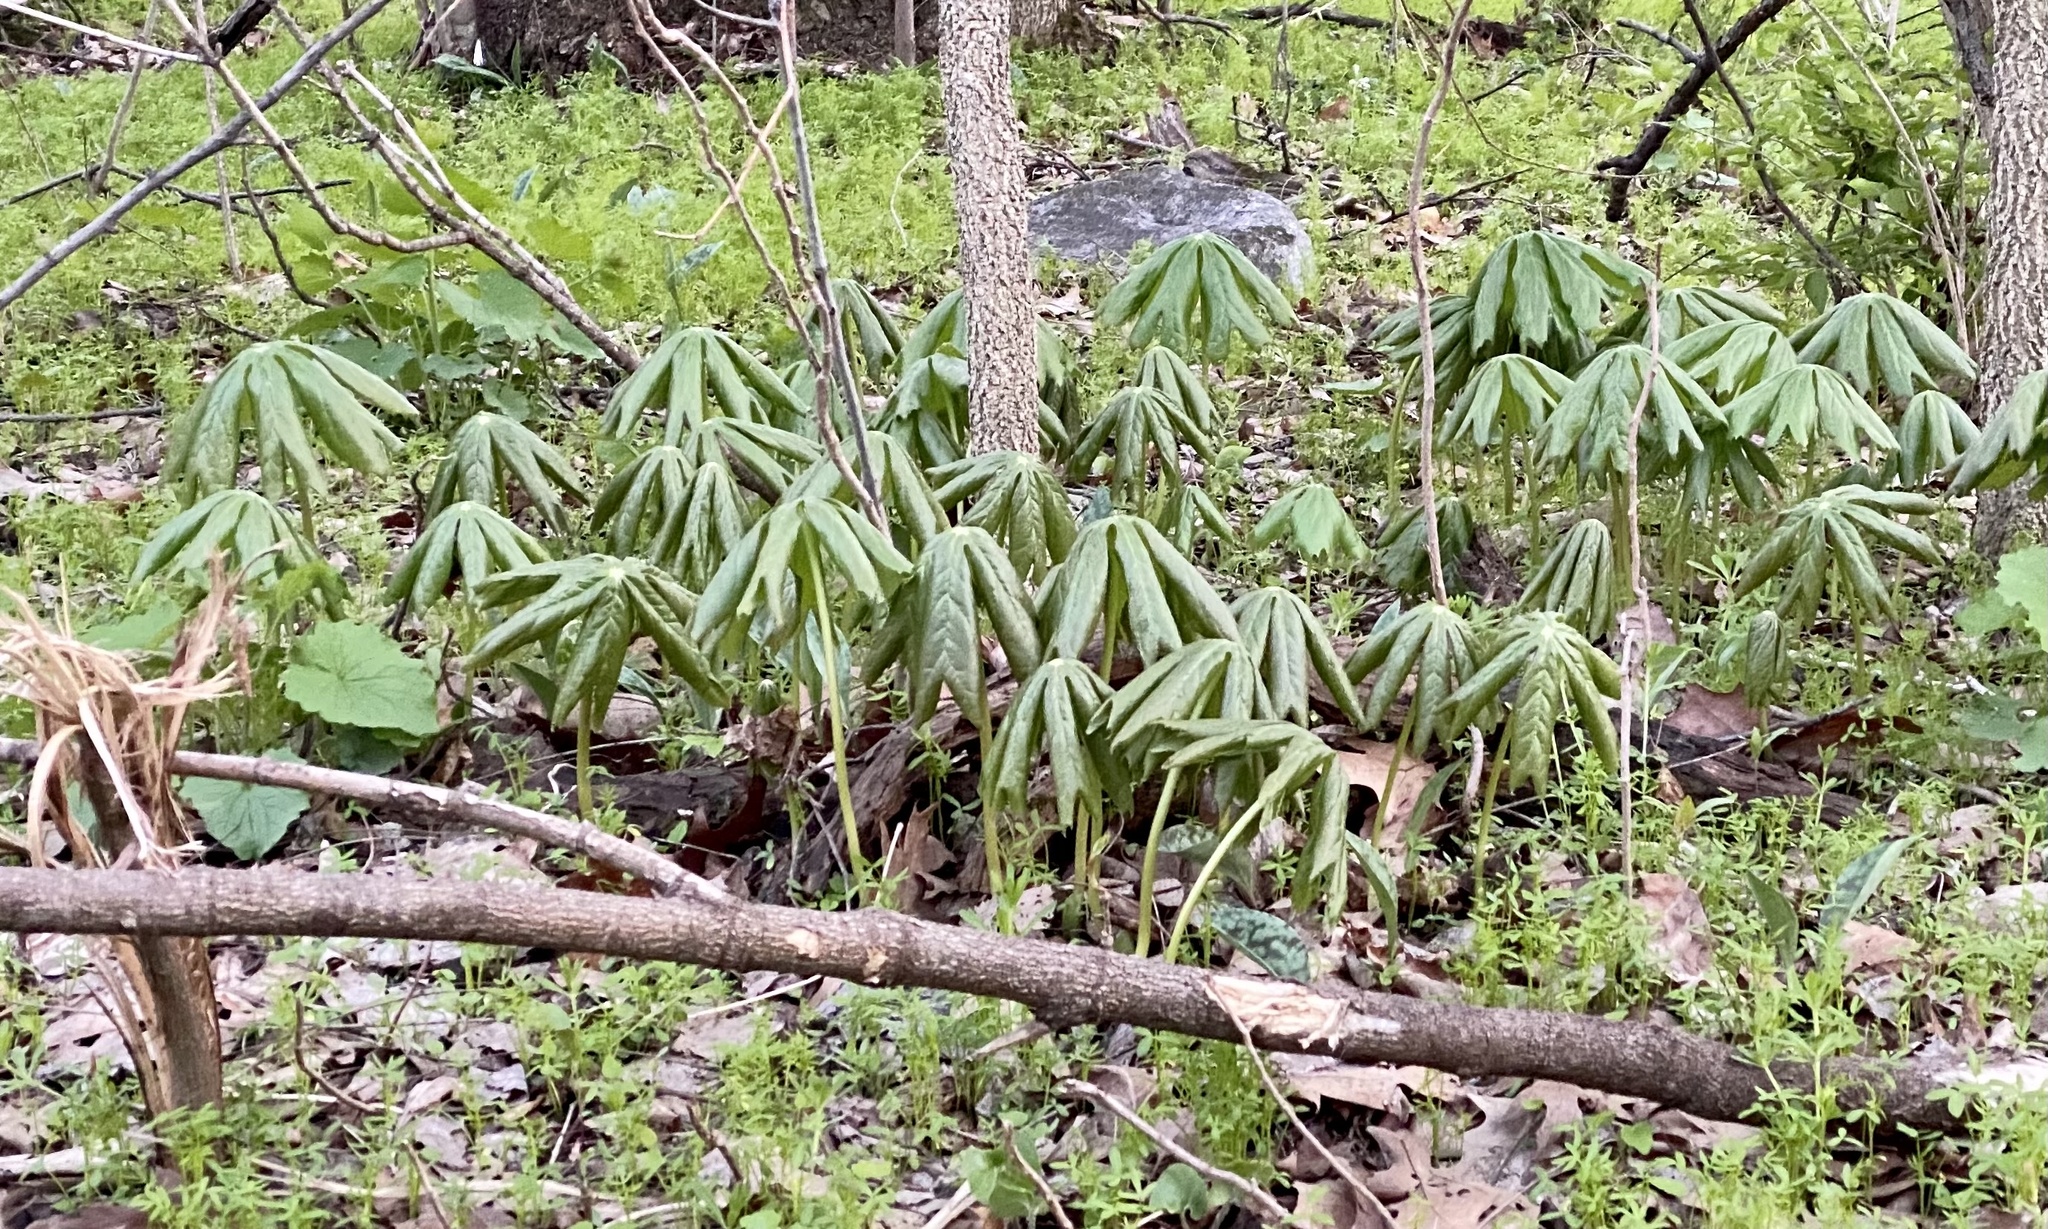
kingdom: Plantae
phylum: Tracheophyta
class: Magnoliopsida
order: Ranunculales
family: Berberidaceae
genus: Podophyllum
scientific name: Podophyllum peltatum
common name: Wild mandrake
